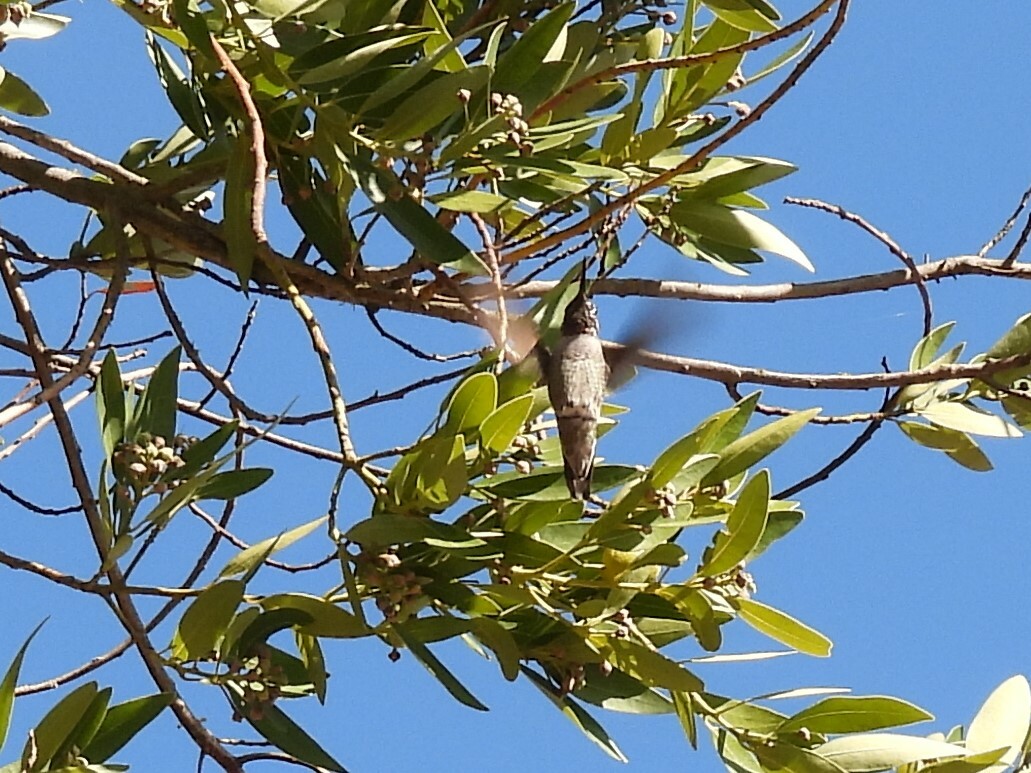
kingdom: Animalia
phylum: Chordata
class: Aves
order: Apodiformes
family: Trochilidae
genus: Calypte
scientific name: Calypte anna
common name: Anna's hummingbird
